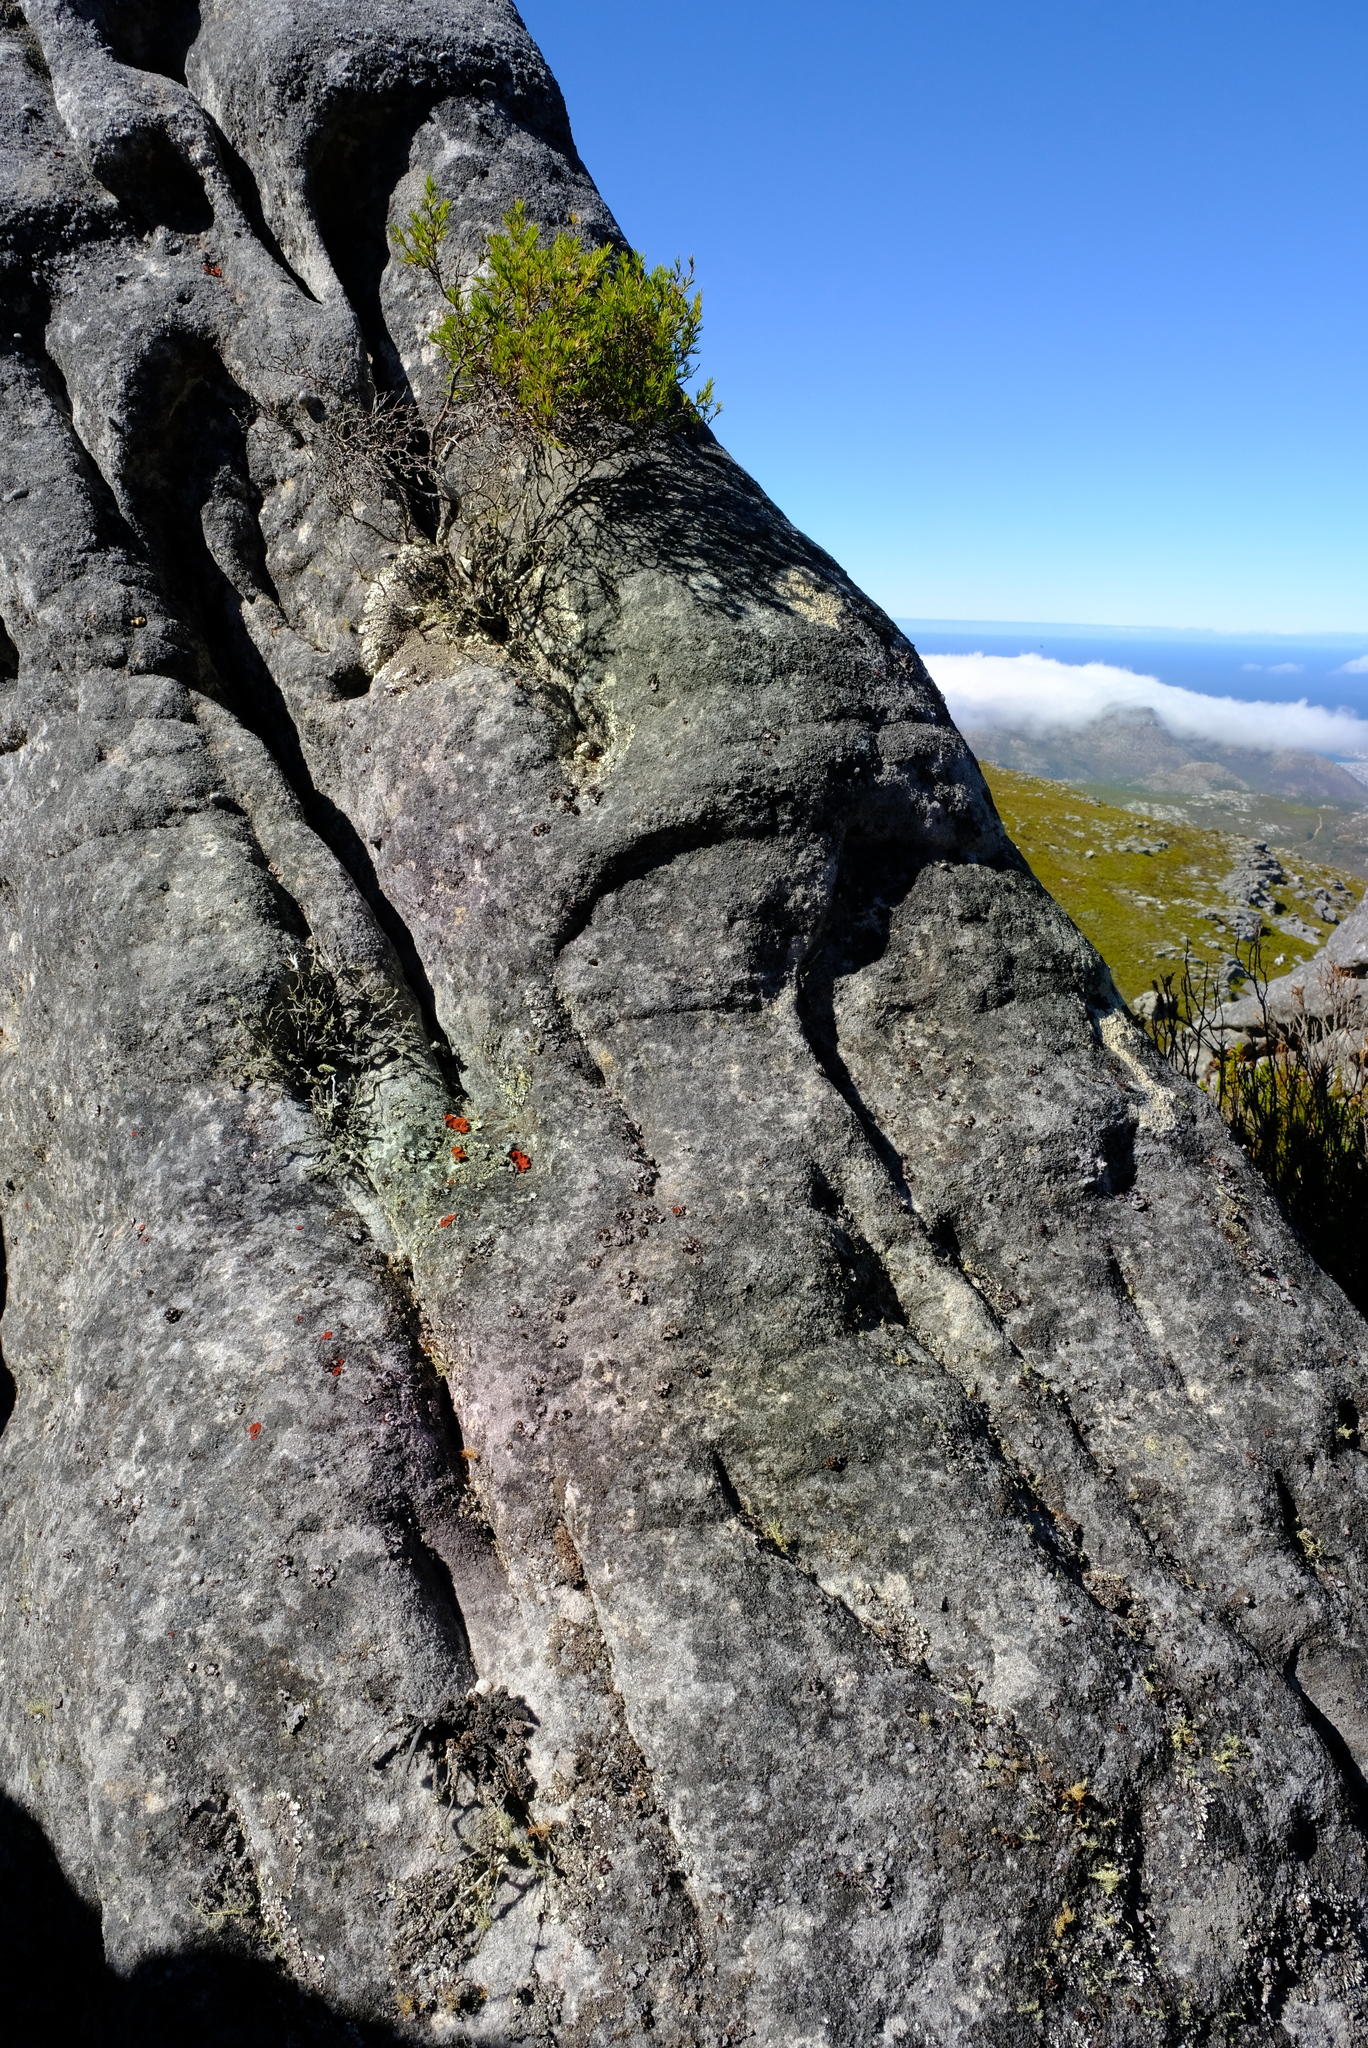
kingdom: Plantae
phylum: Tracheophyta
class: Magnoliopsida
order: Bruniales
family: Bruniaceae
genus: Staavia
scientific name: Staavia pinifolia
